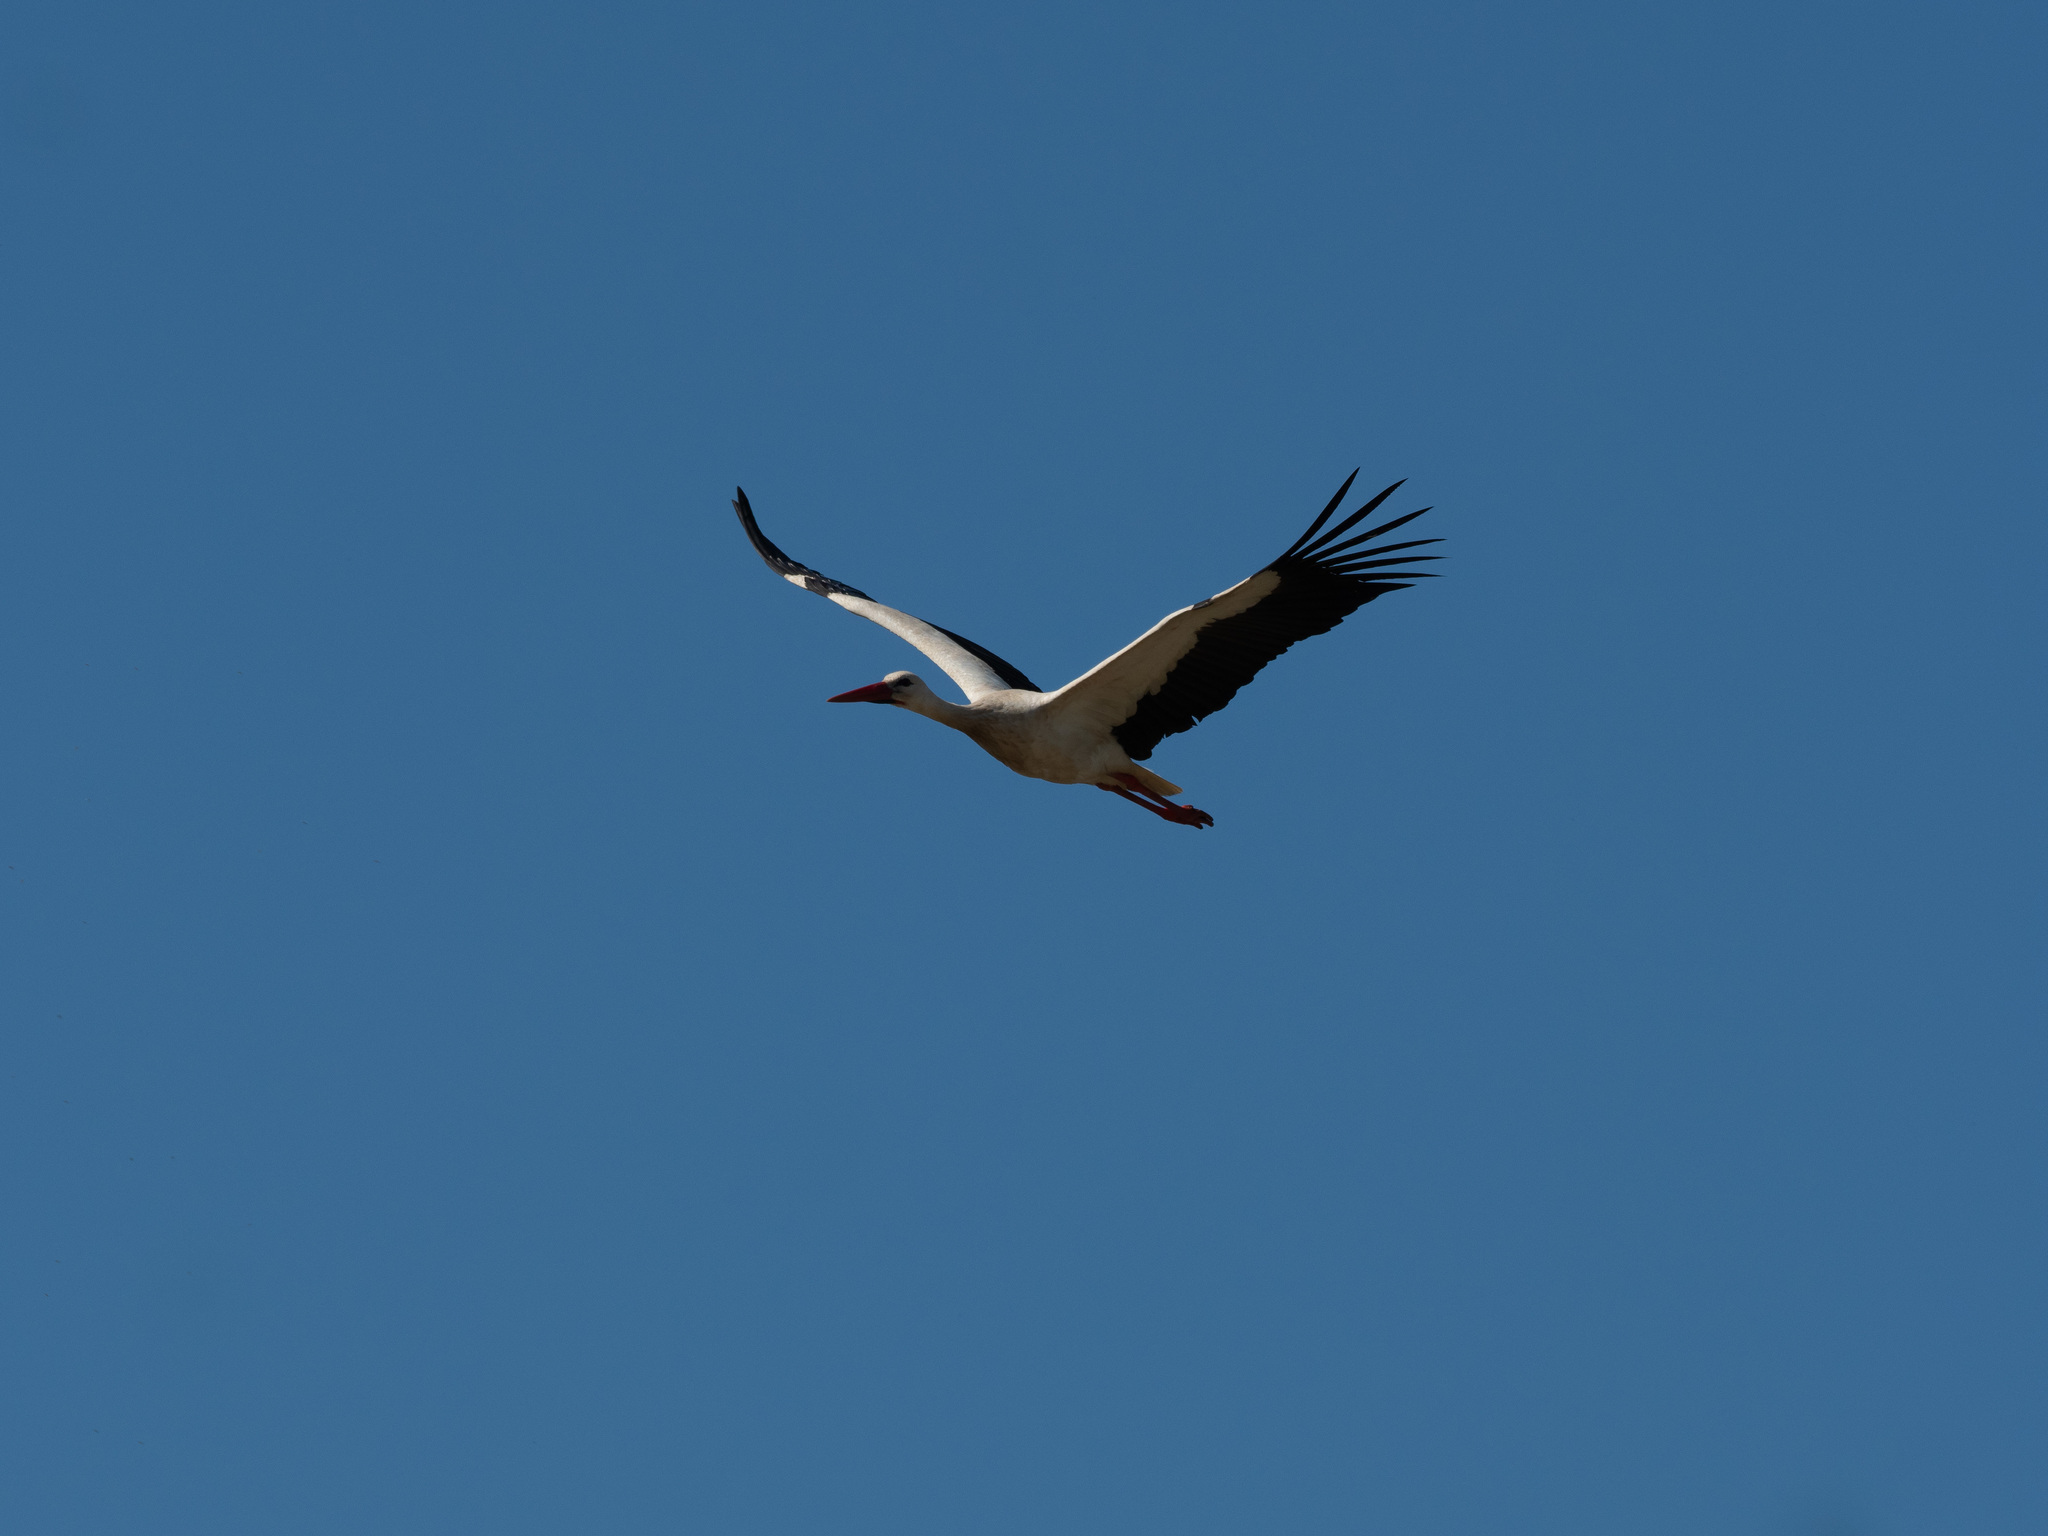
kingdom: Animalia
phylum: Chordata
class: Aves
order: Ciconiiformes
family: Ciconiidae
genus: Ciconia
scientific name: Ciconia ciconia
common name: White stork
